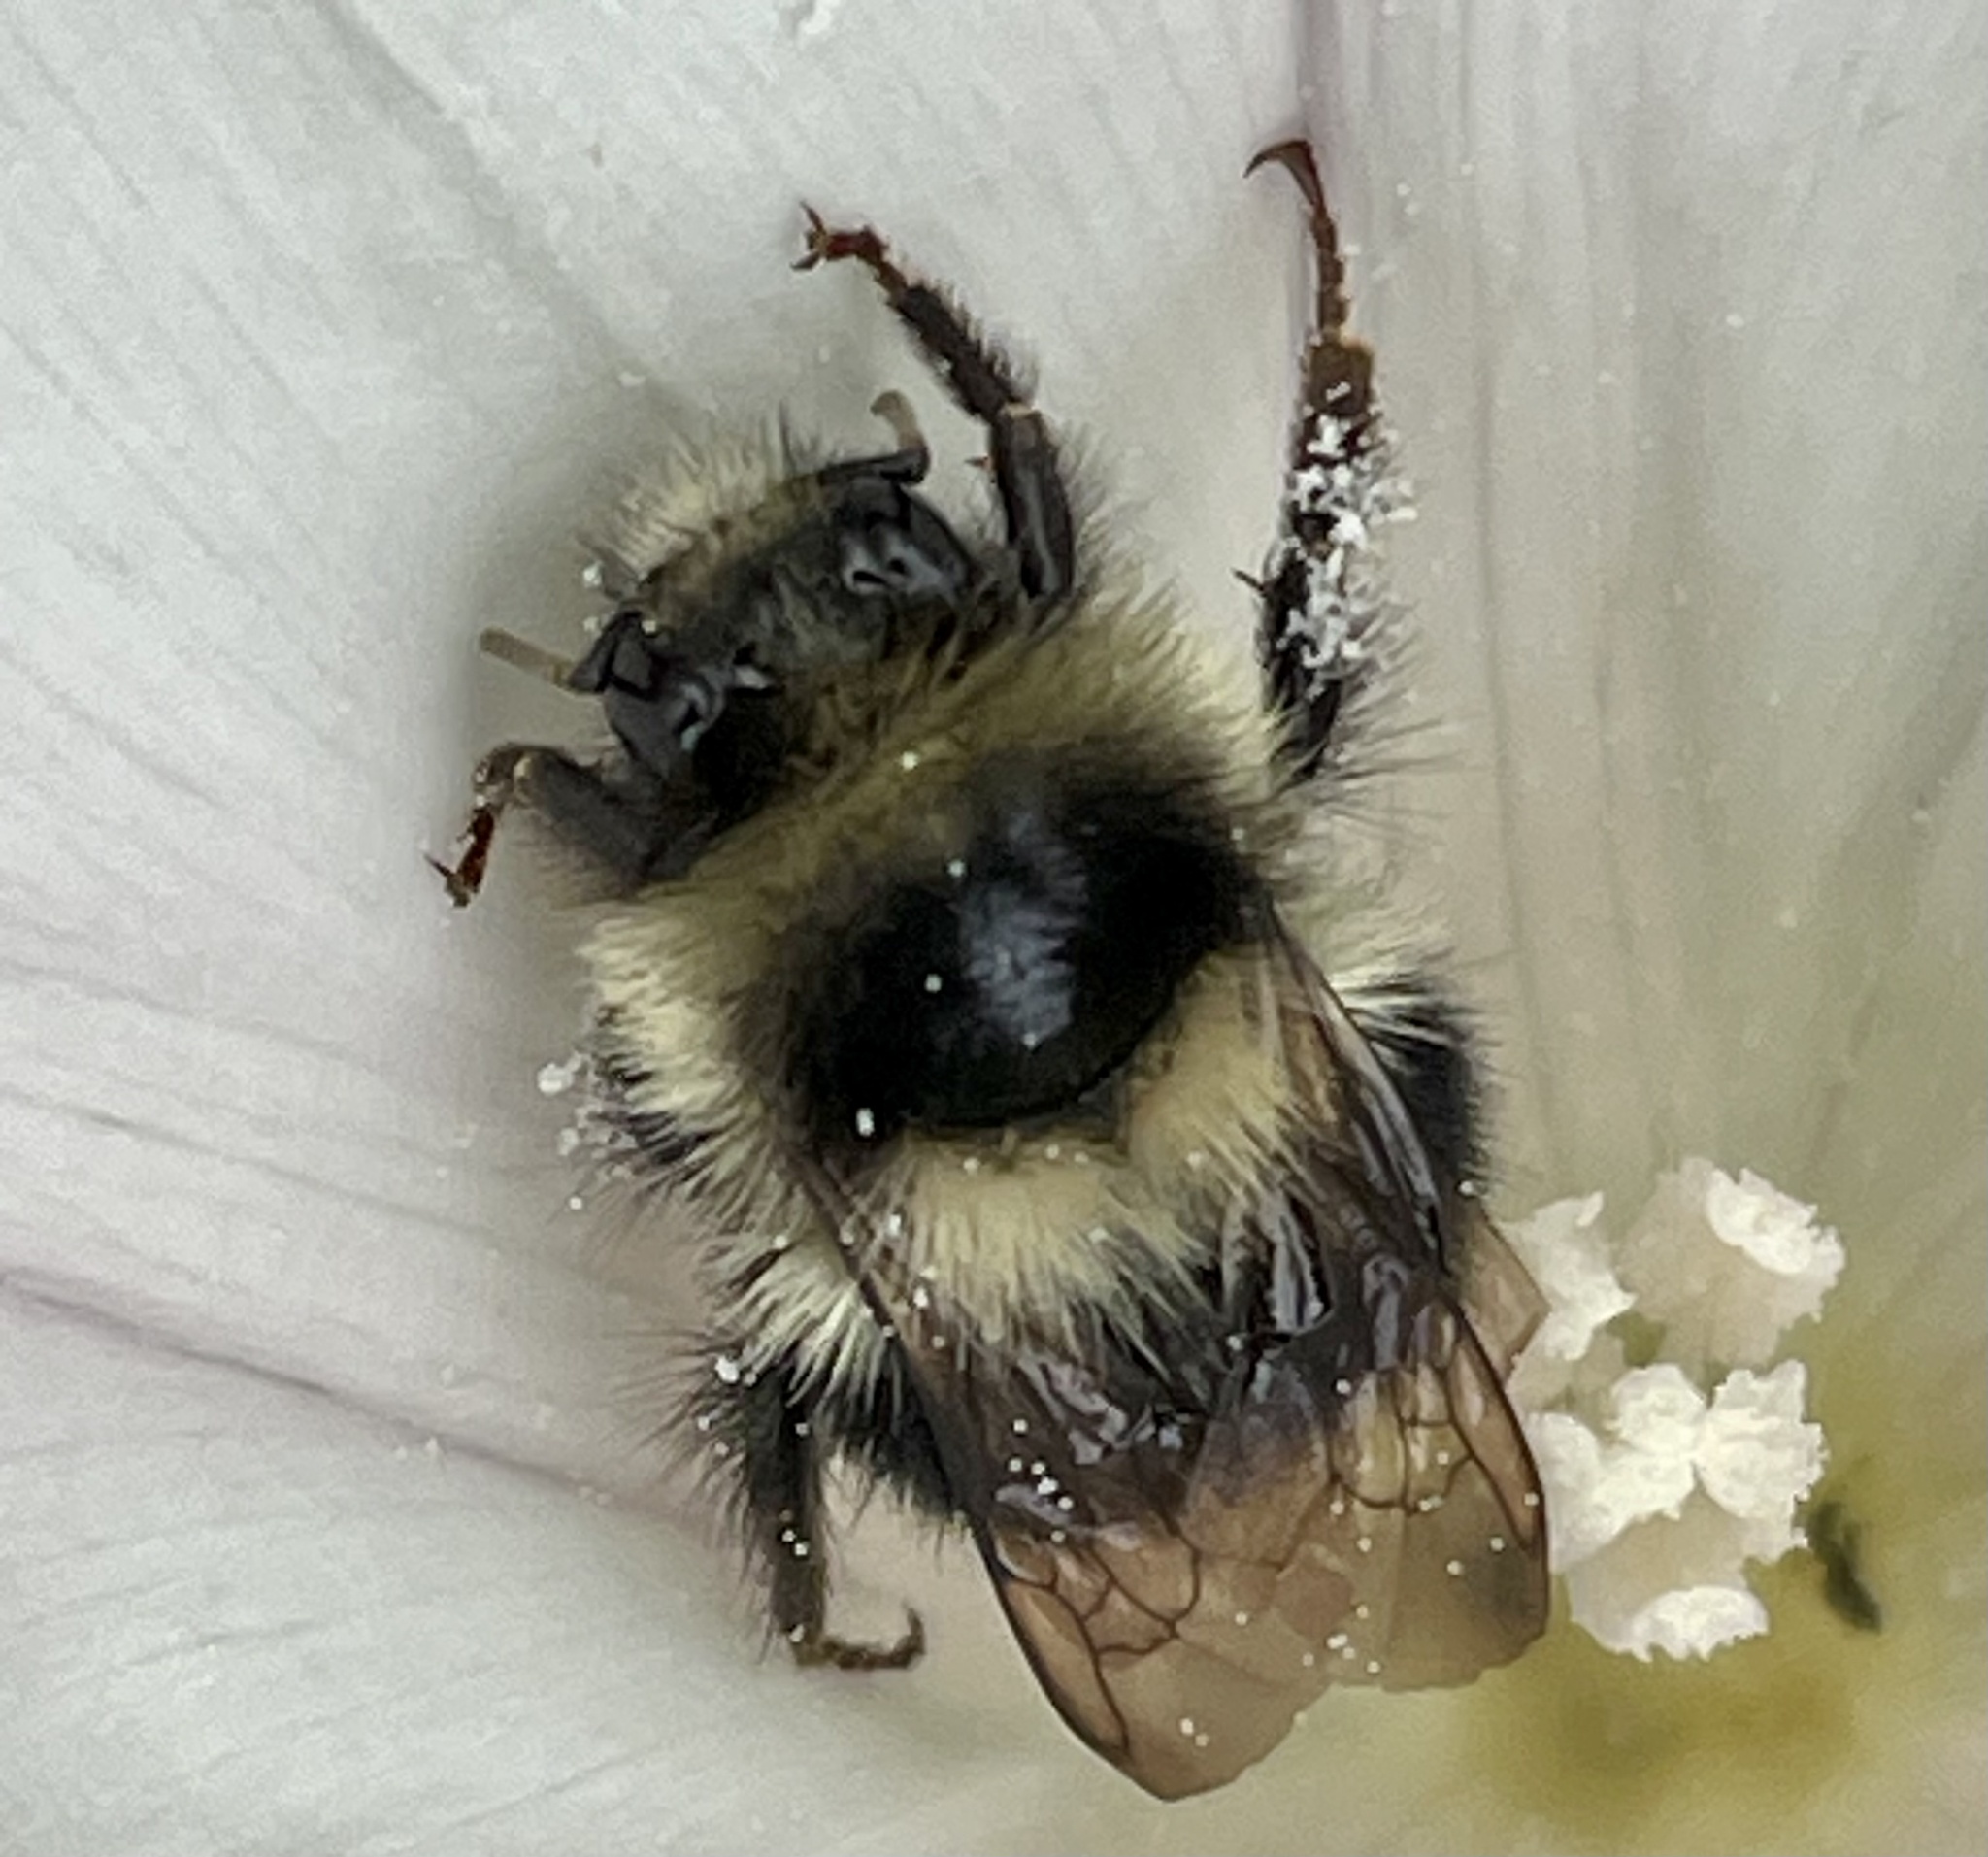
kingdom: Animalia
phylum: Arthropoda
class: Insecta
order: Hymenoptera
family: Apidae
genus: Bombus
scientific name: Bombus melanopygus
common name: Black tail bumble bee
